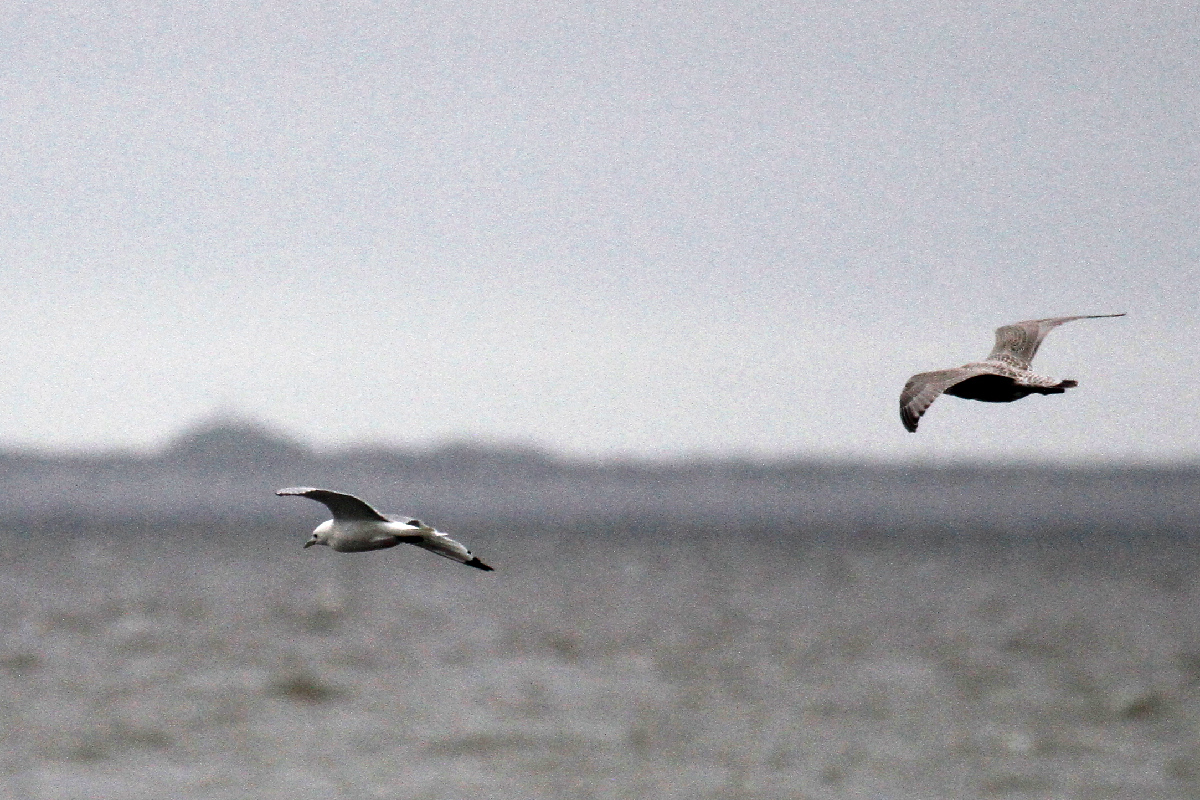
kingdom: Animalia
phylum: Chordata
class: Aves
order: Charadriiformes
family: Laridae
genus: Rissa
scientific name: Rissa tridactyla
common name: Black-legged kittiwake
